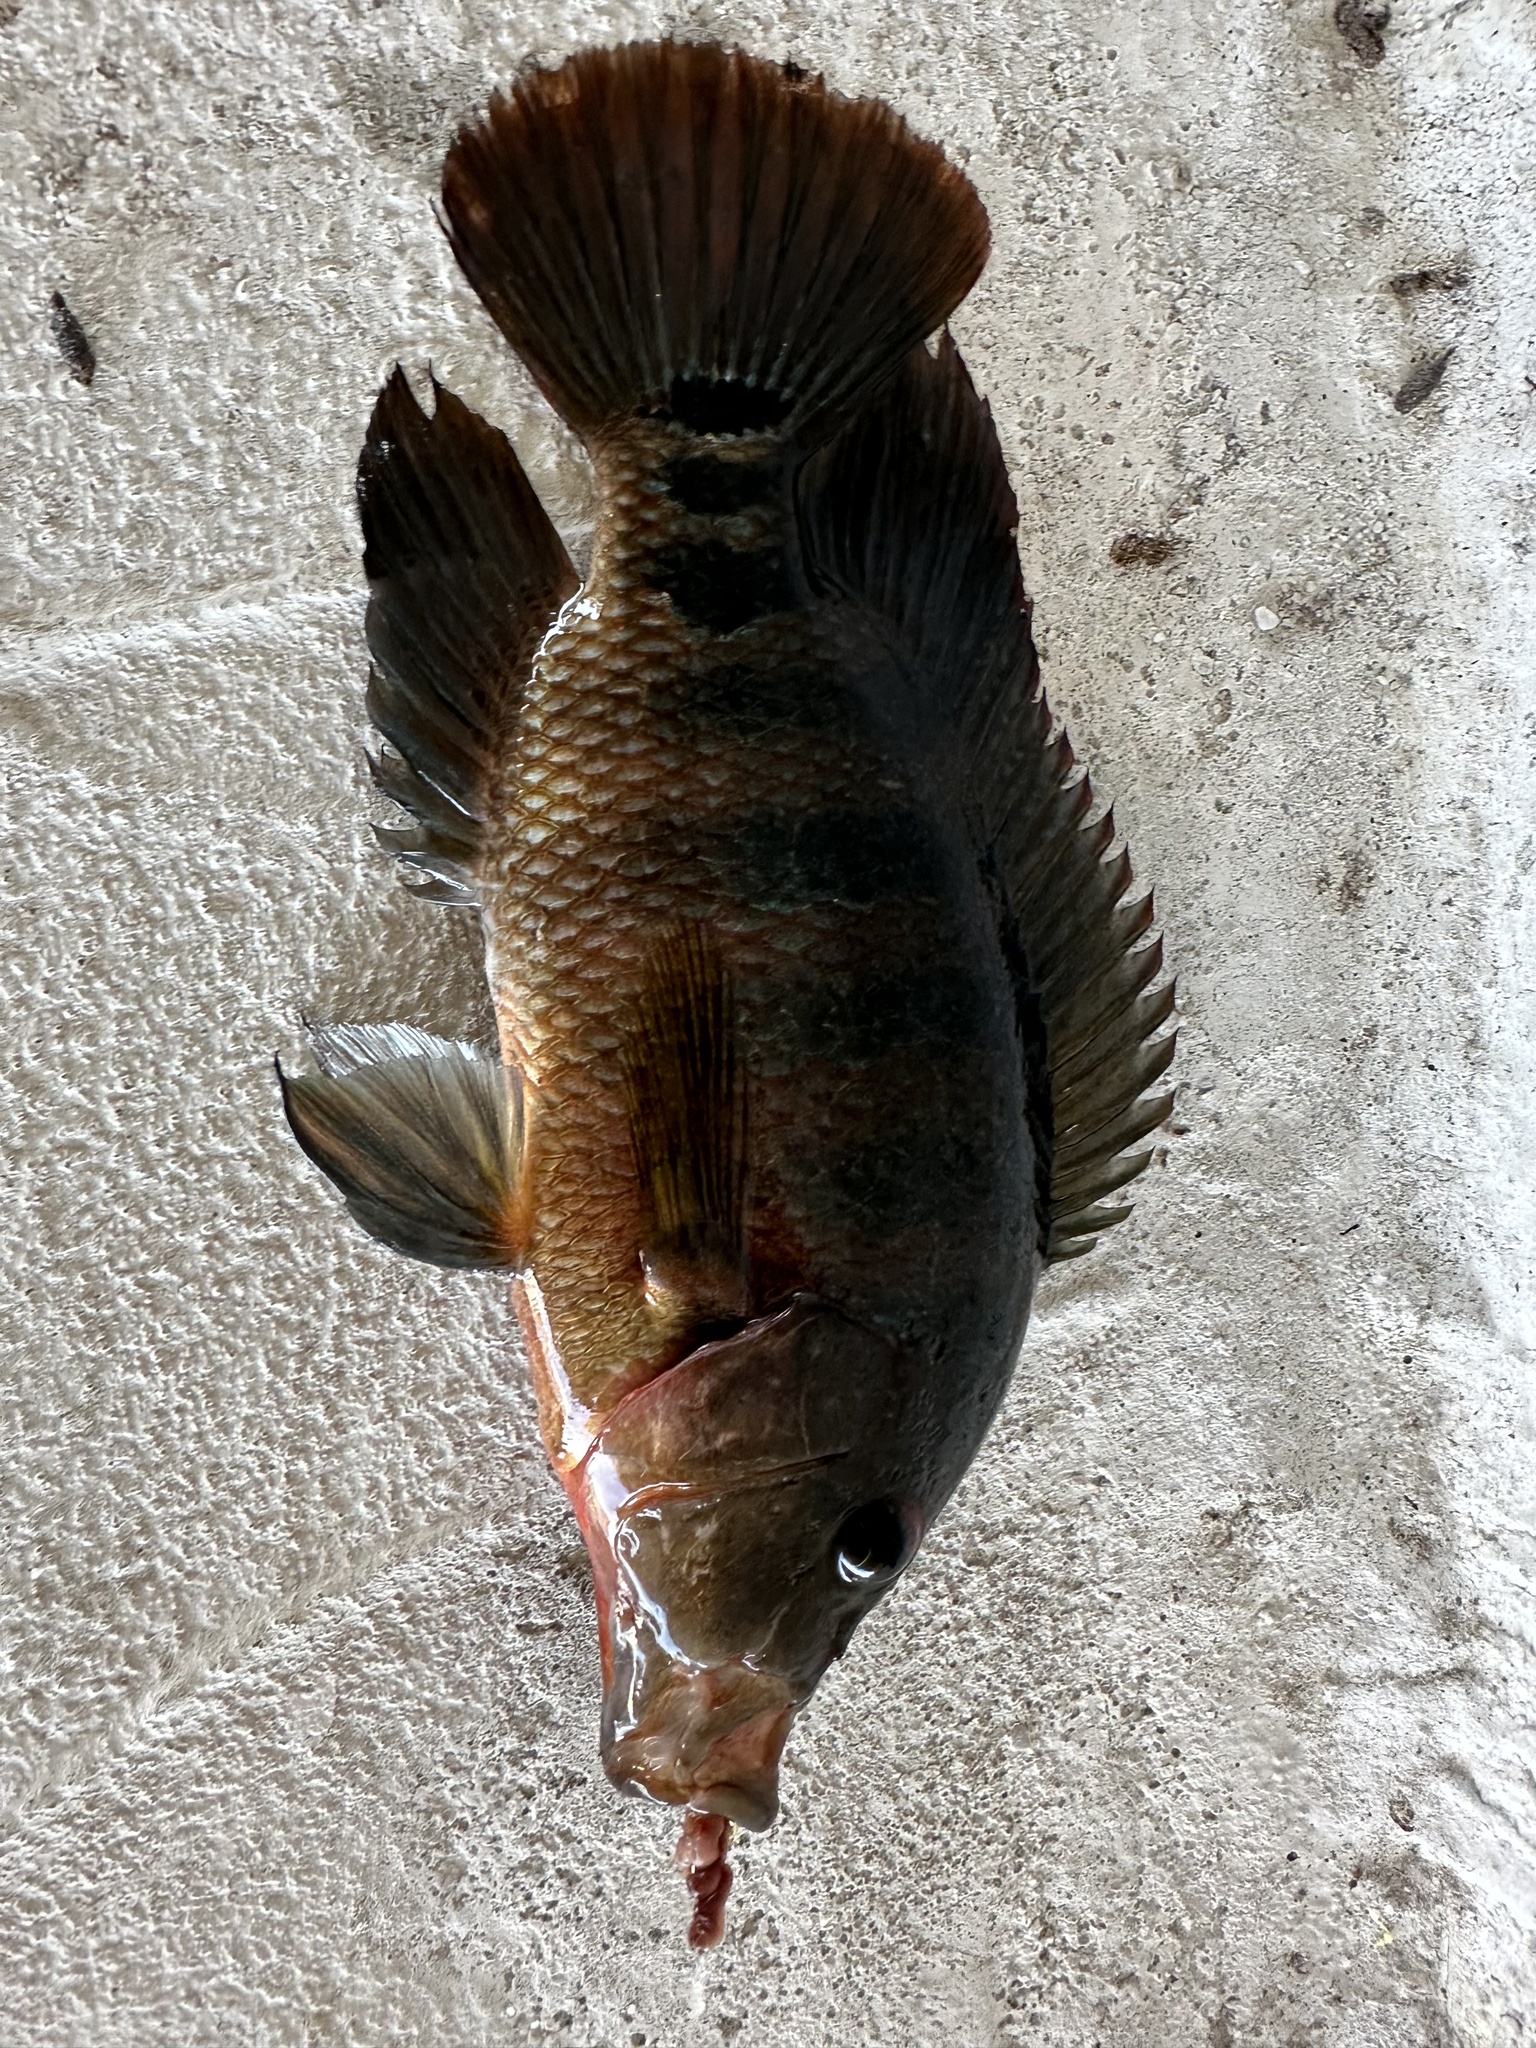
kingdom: Animalia
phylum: Chordata
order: Perciformes
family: Cichlidae
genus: Mayaheros
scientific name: Mayaheros urophthalmus
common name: Mayan cichlid
